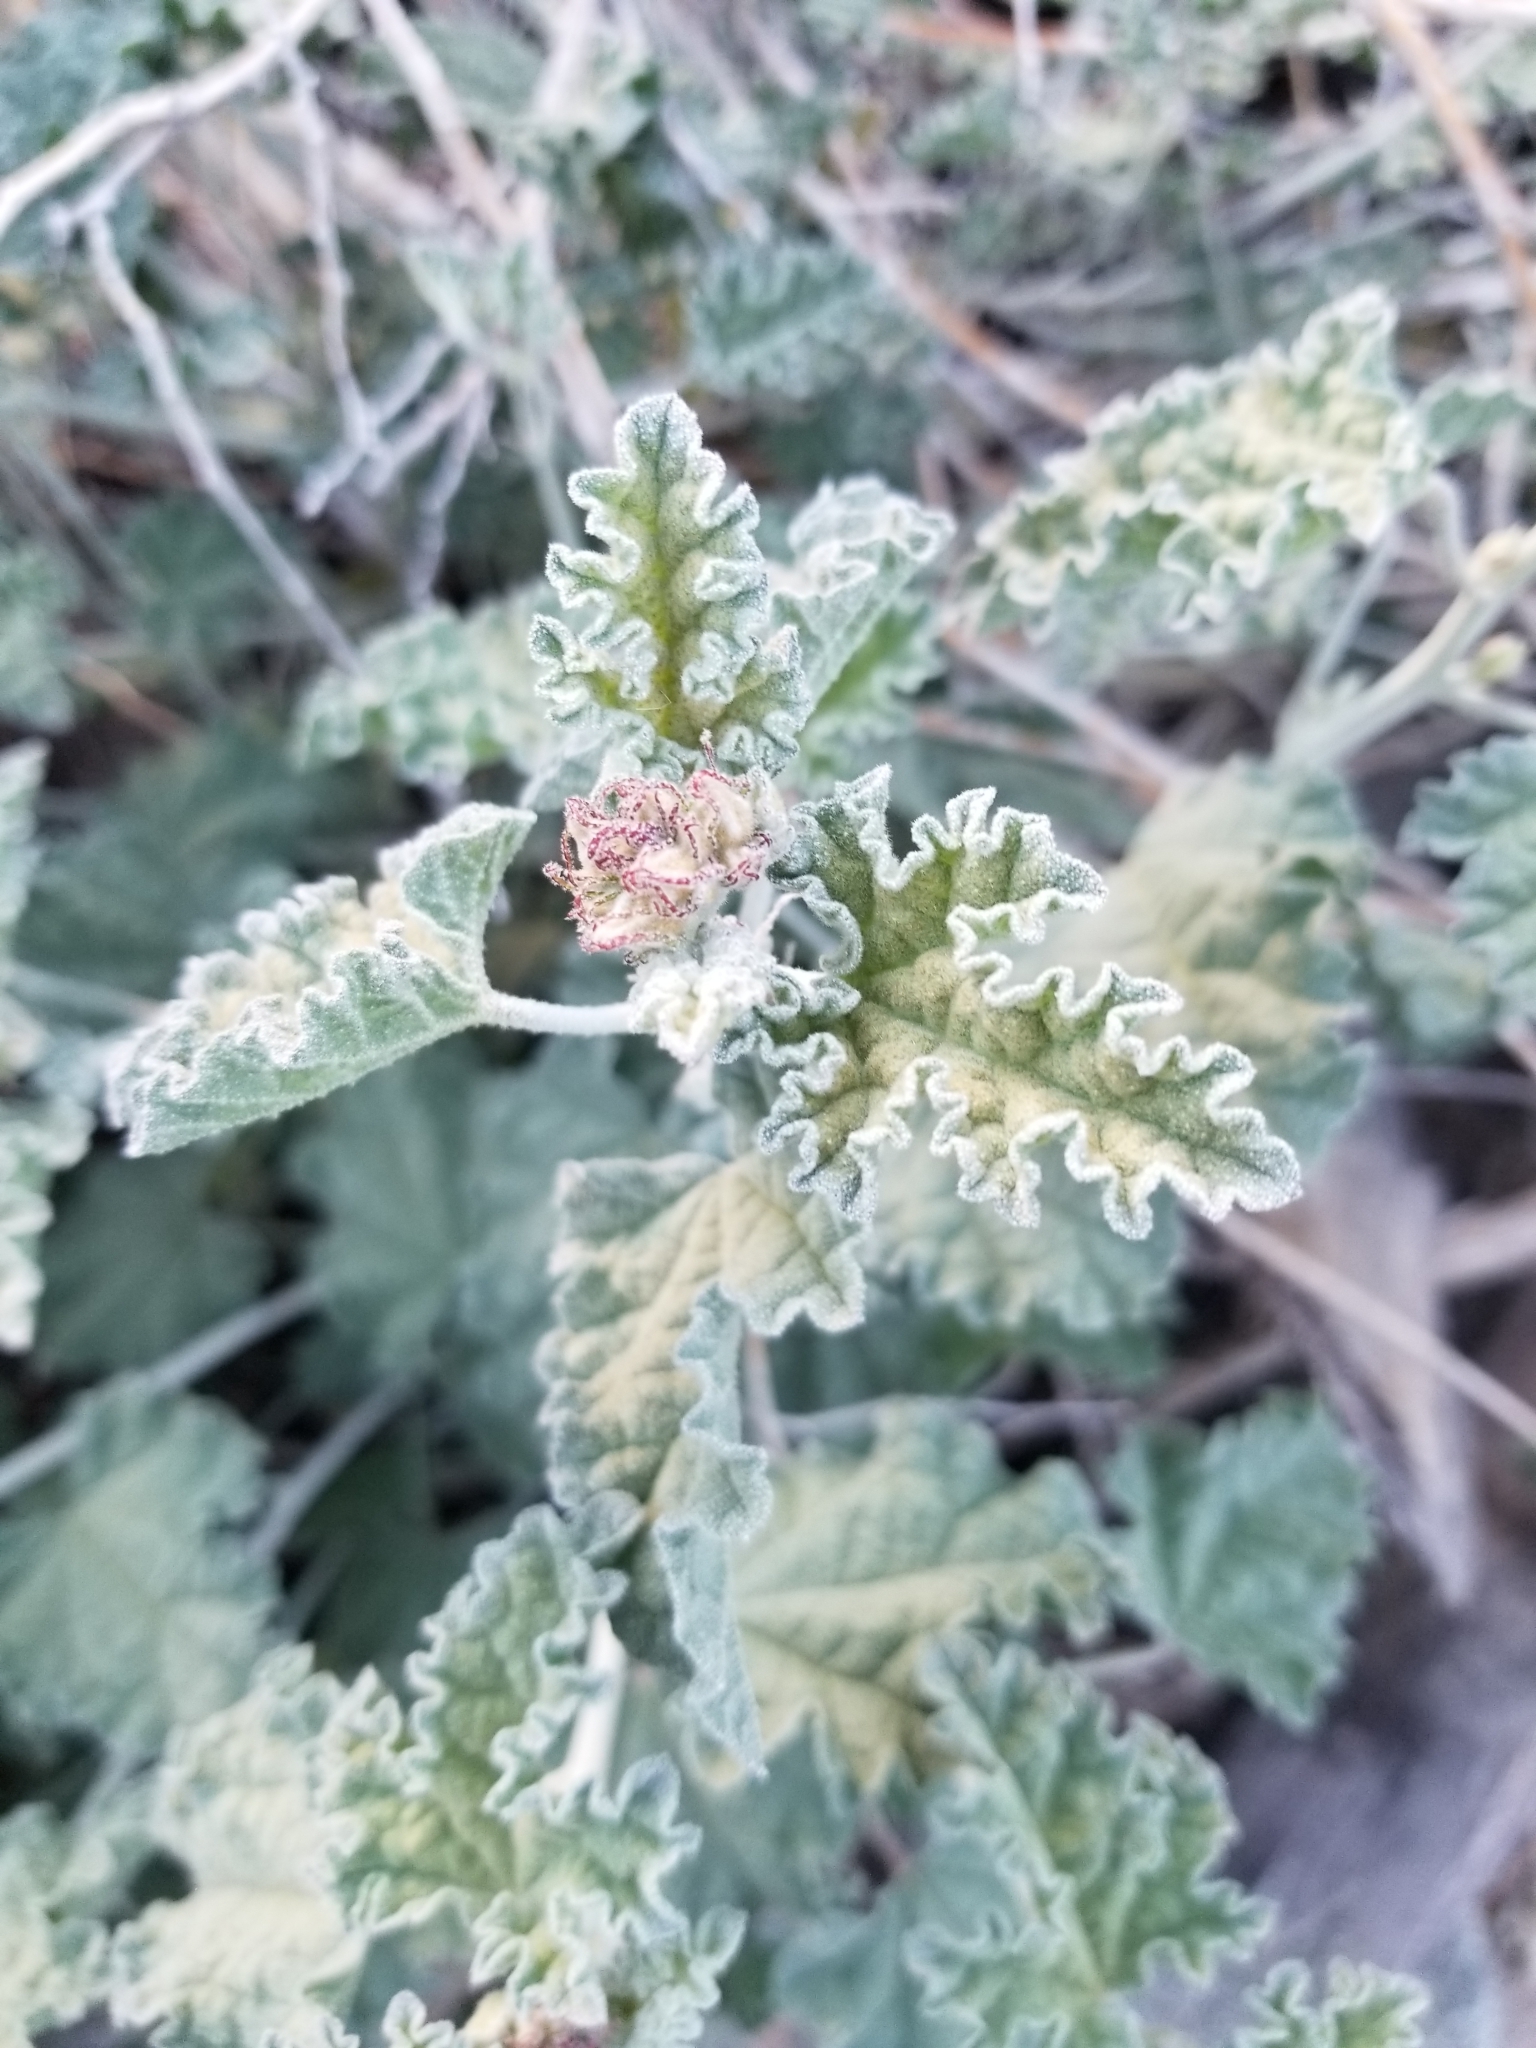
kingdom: Plantae
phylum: Tracheophyta
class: Magnoliopsida
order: Malvales
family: Malvaceae
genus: Sphaeralcea
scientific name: Sphaeralcea ambigua
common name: Apricot globe-mallow
